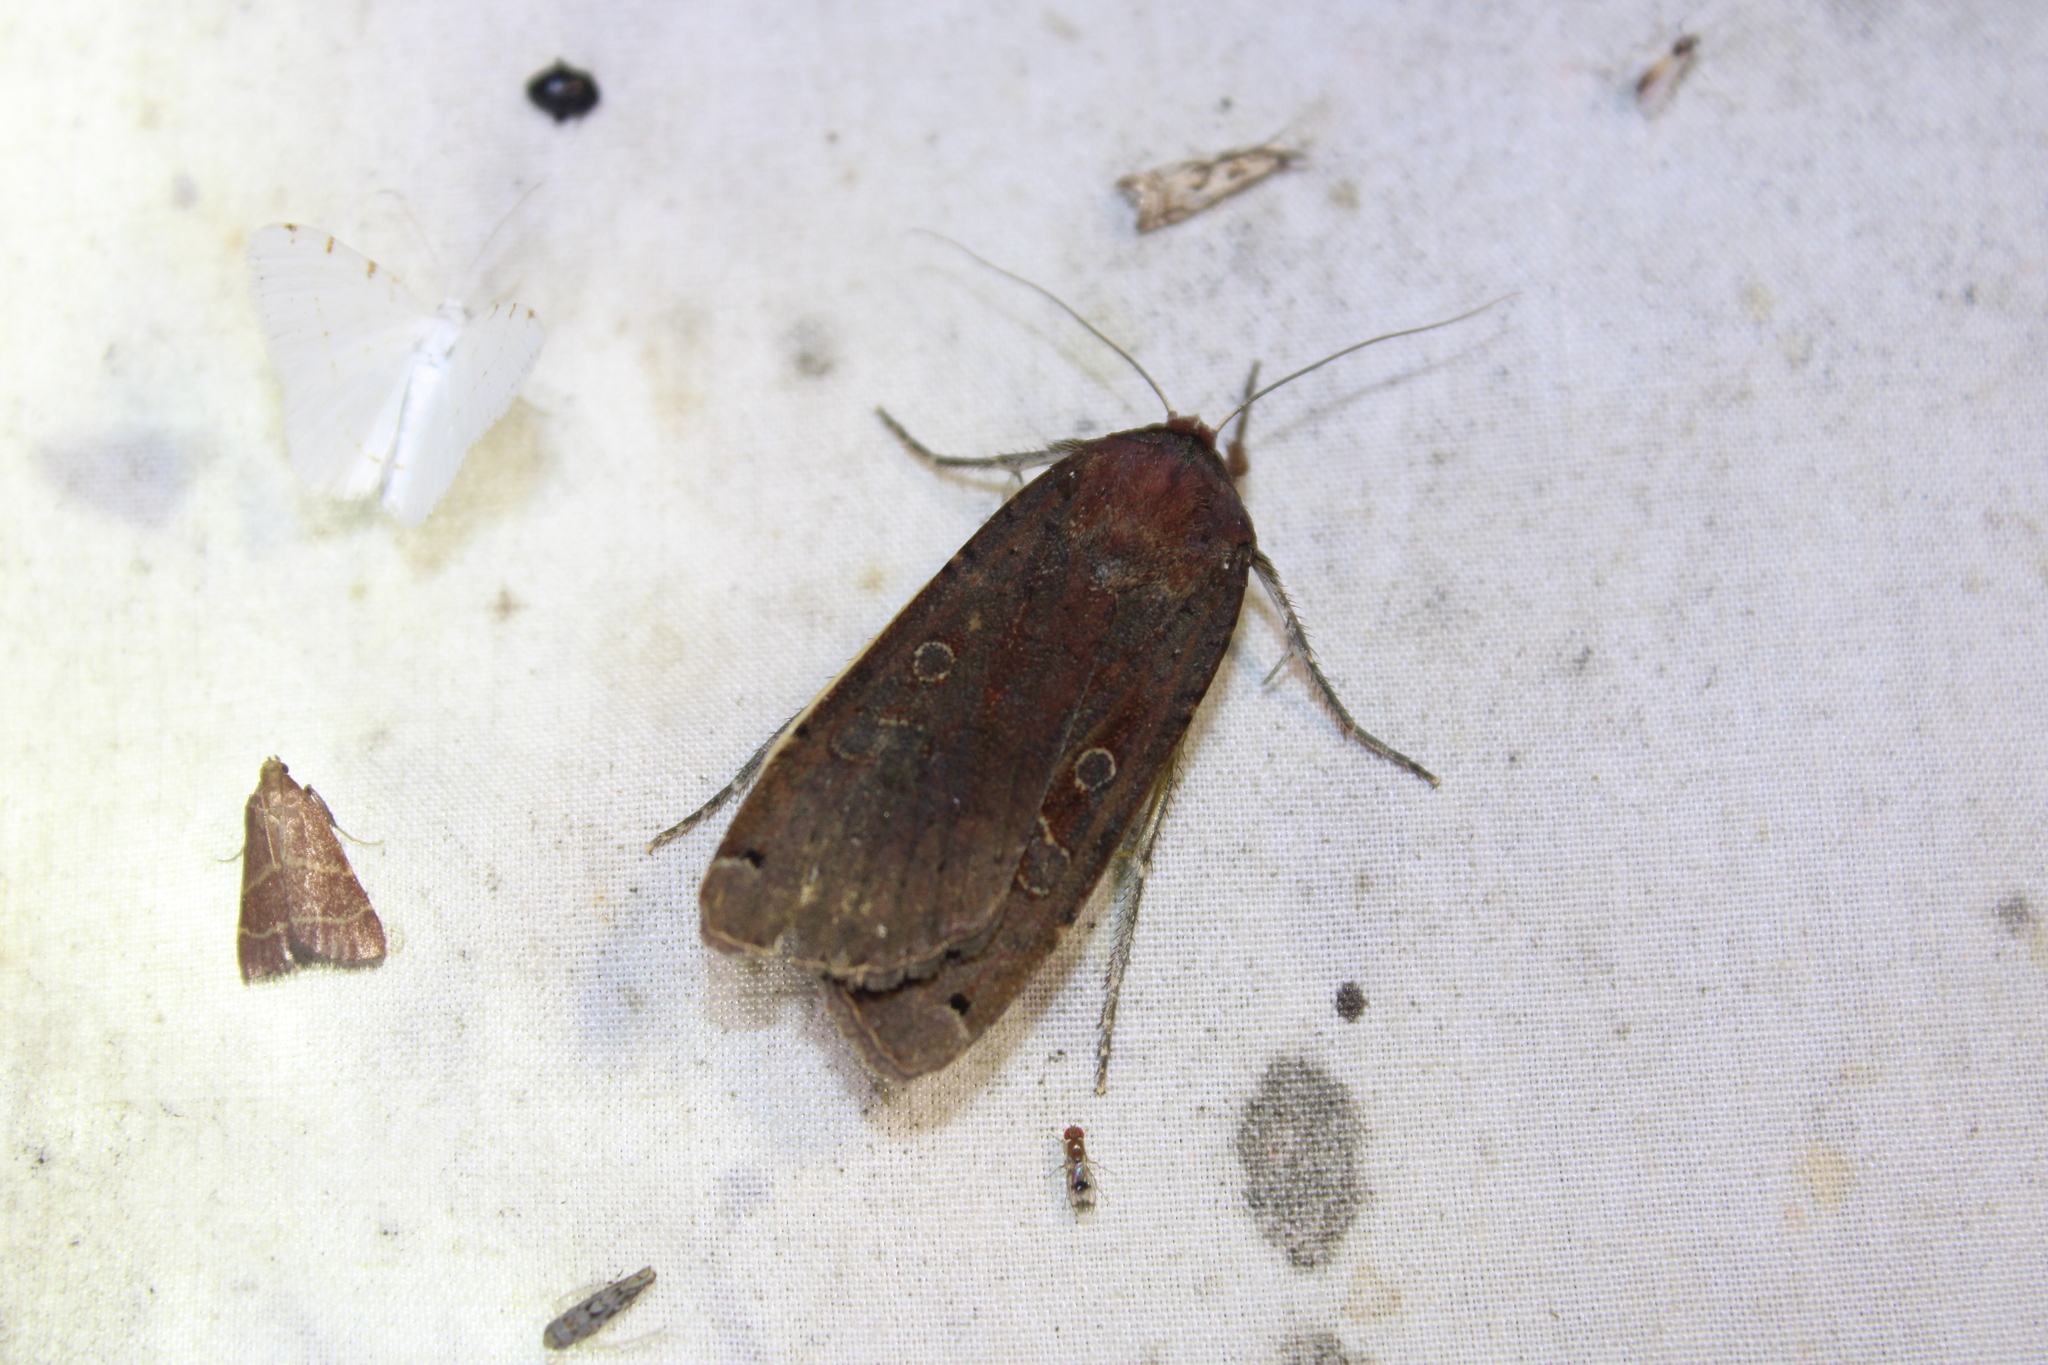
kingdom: Animalia
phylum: Arthropoda
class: Insecta
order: Lepidoptera
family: Noctuidae
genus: Noctua
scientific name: Noctua pronuba
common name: Large yellow underwing
